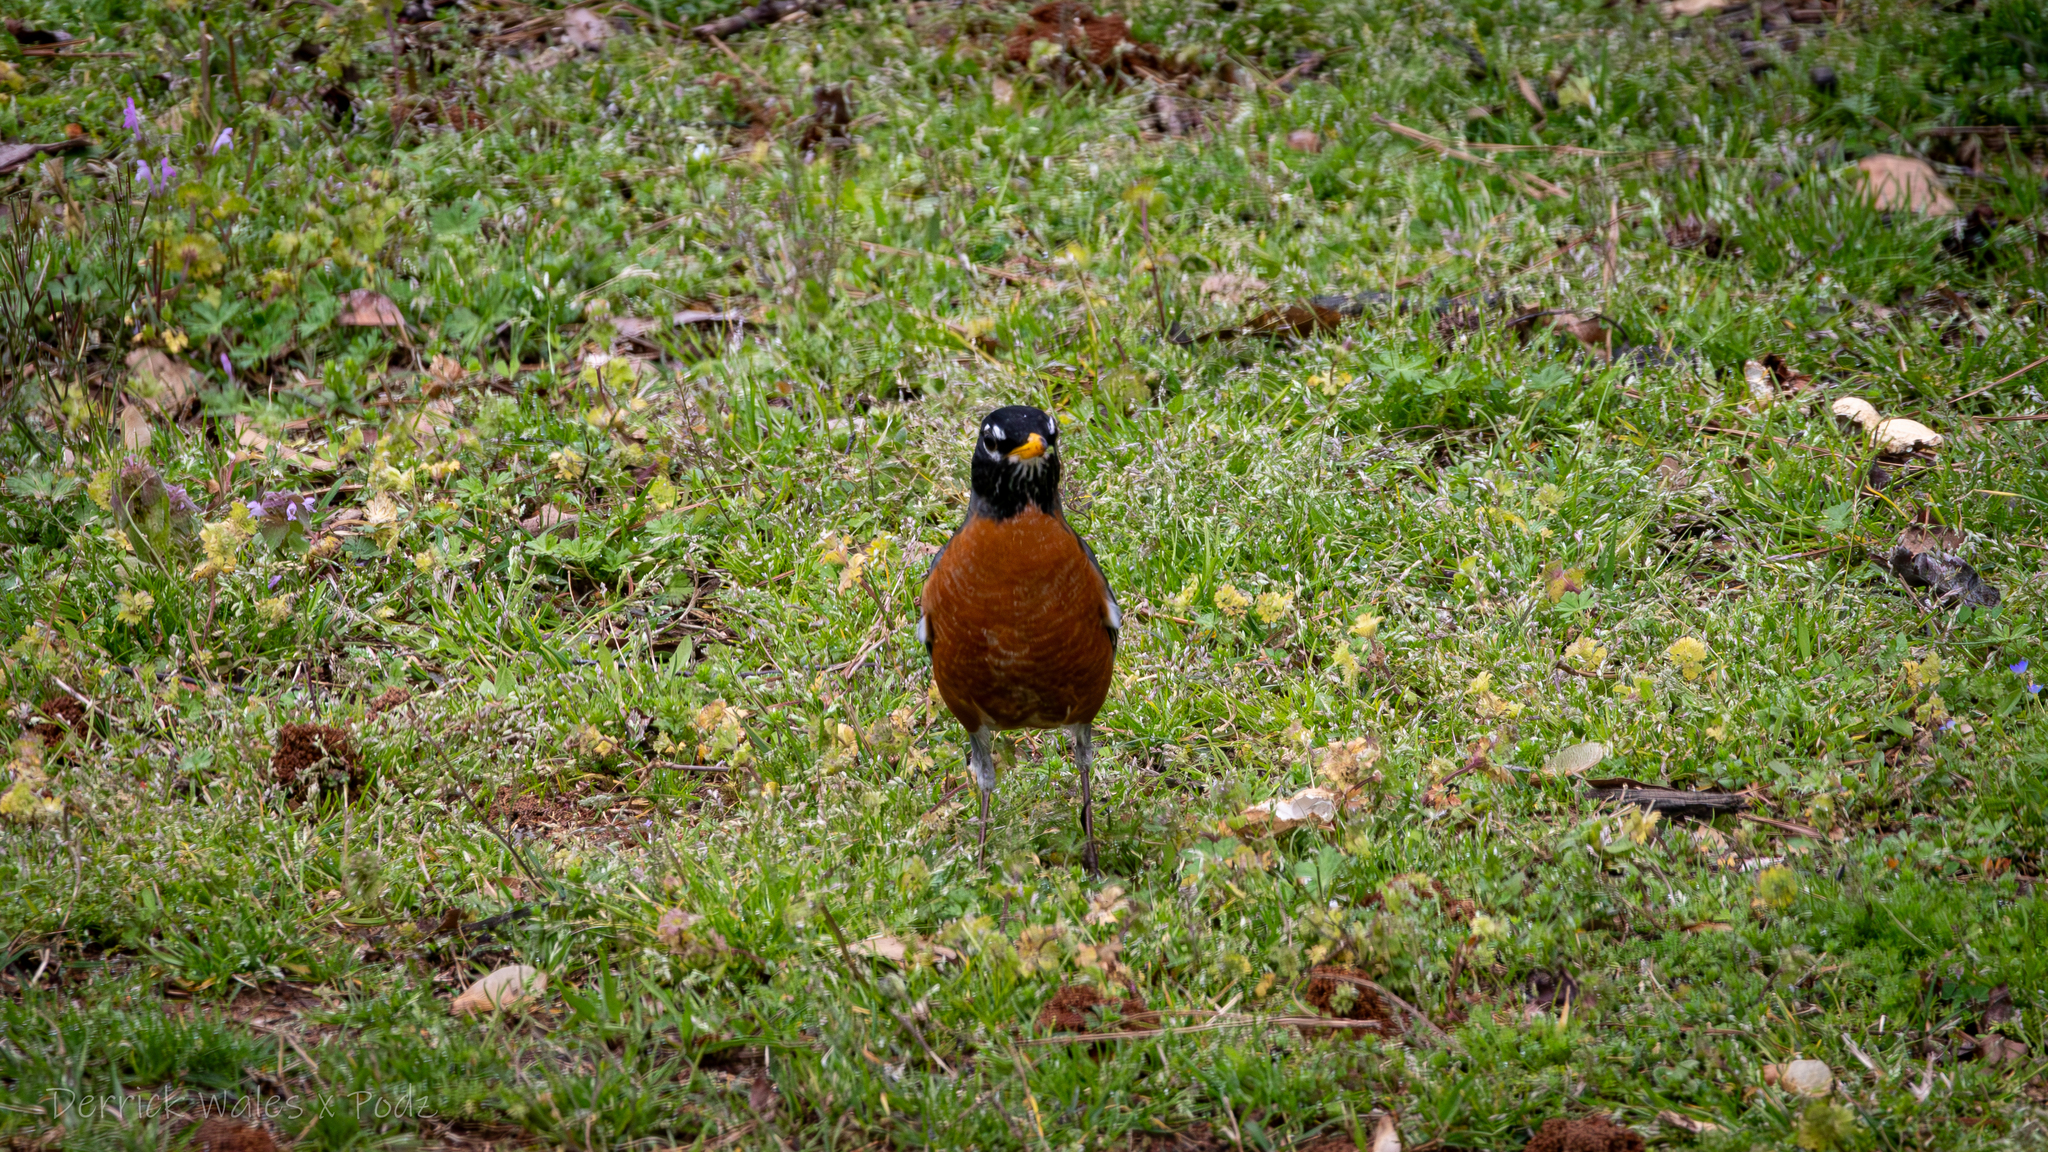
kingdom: Animalia
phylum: Chordata
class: Aves
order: Passeriformes
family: Turdidae
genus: Turdus
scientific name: Turdus migratorius
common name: American robin
